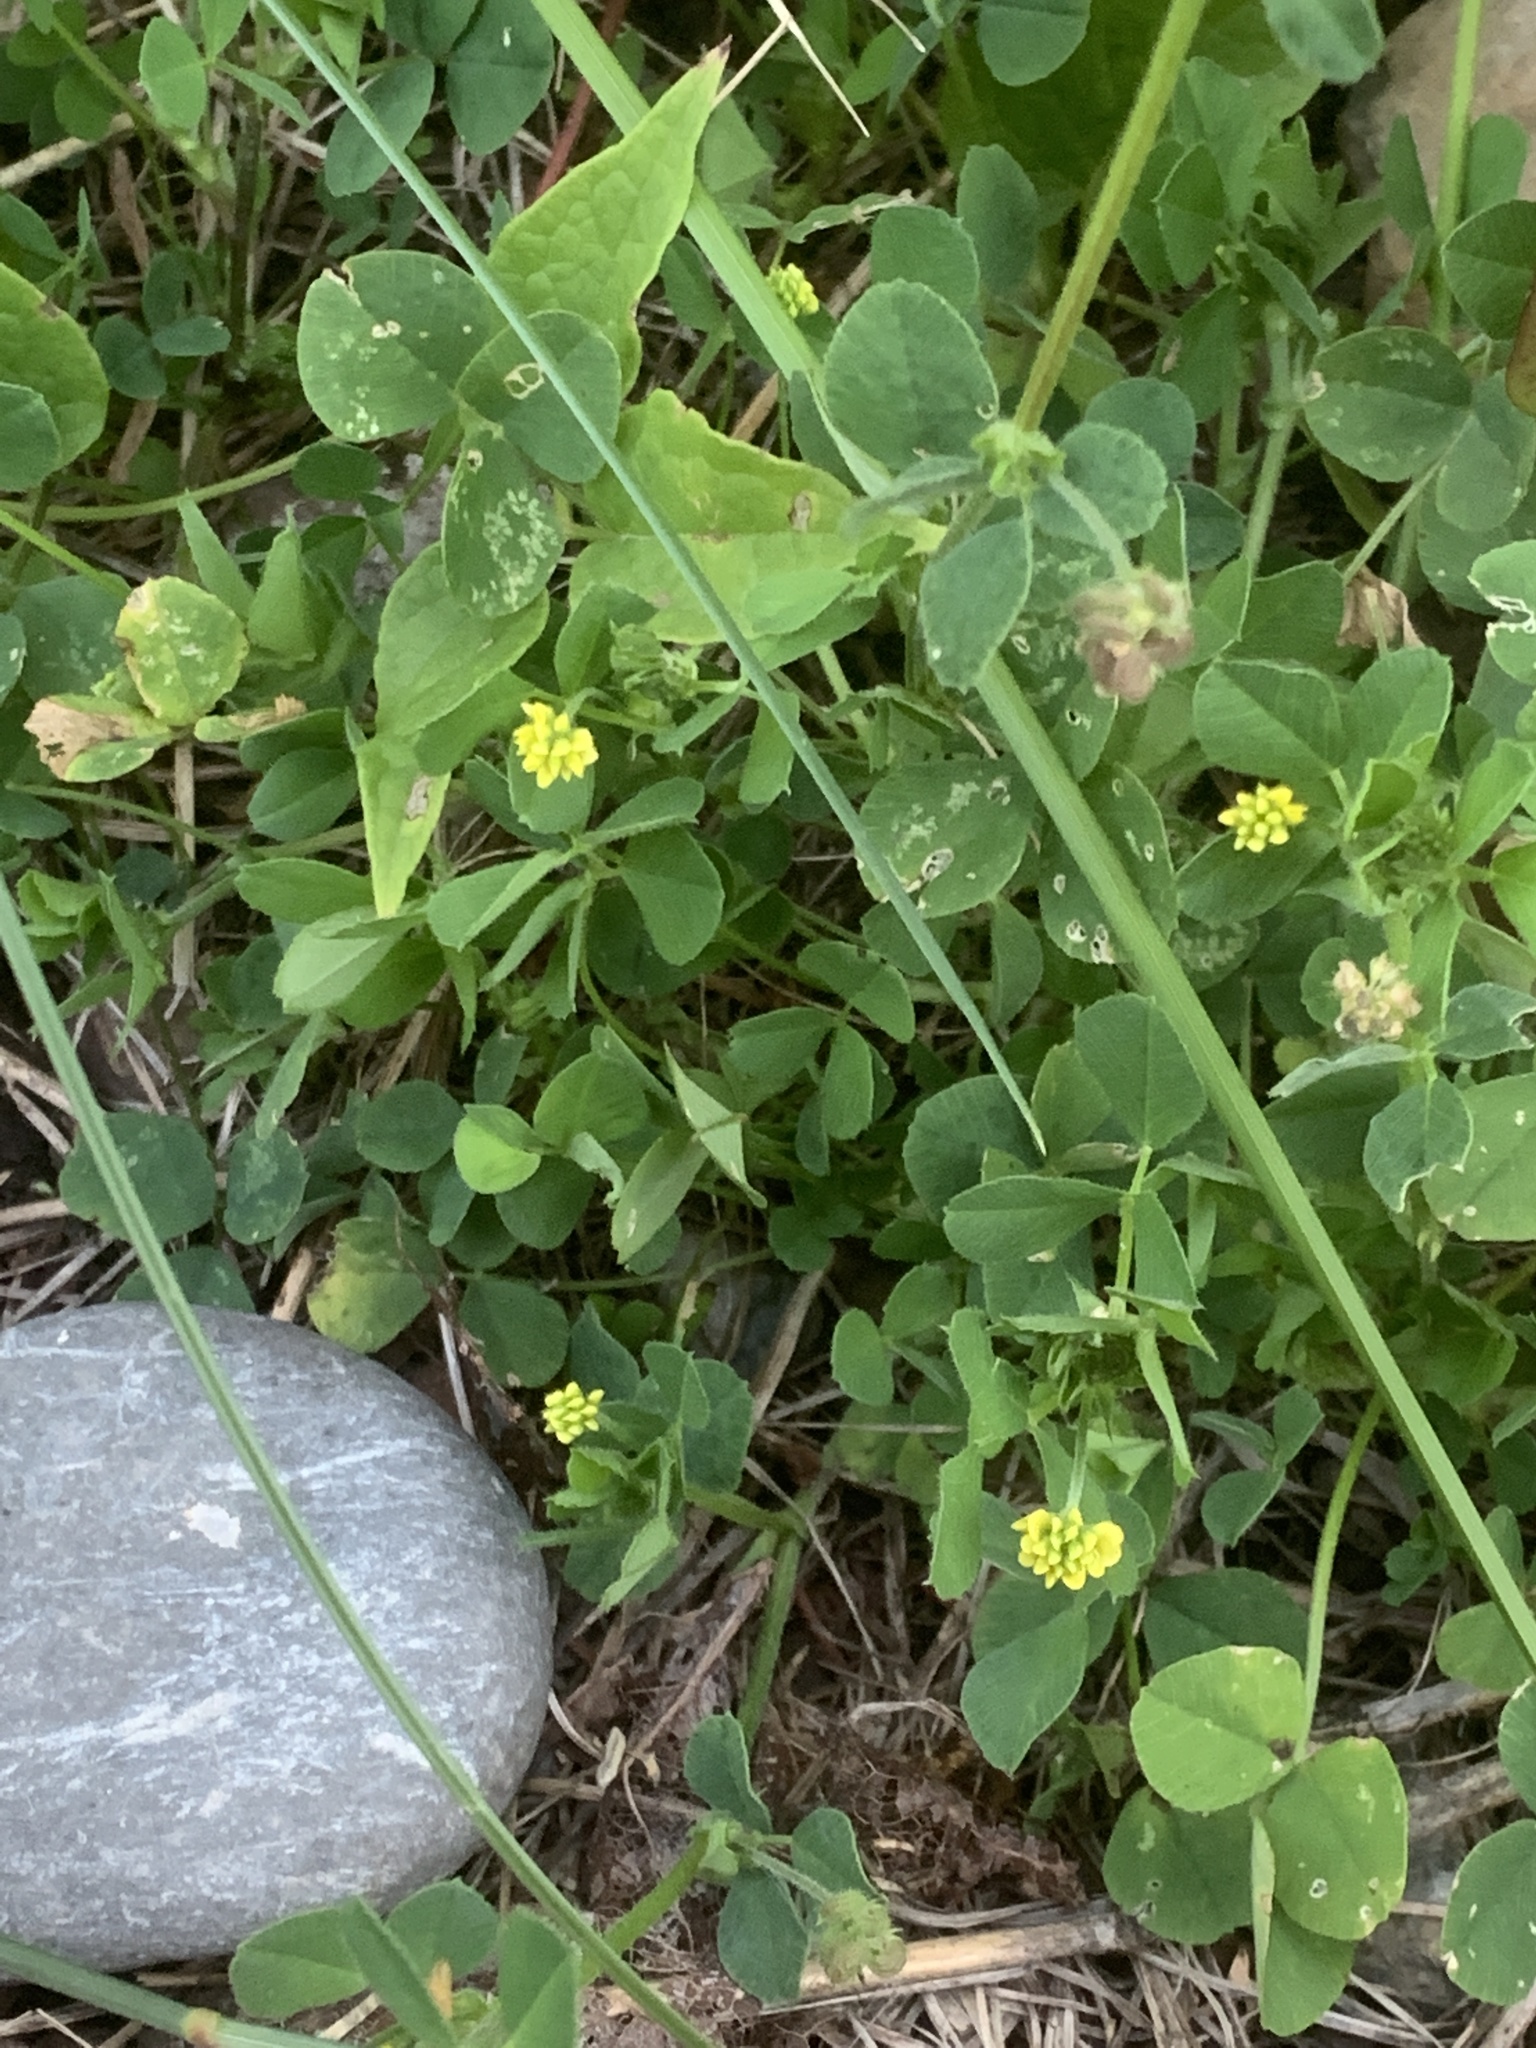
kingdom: Plantae
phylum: Tracheophyta
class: Magnoliopsida
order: Fabales
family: Fabaceae
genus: Medicago
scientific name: Medicago lupulina
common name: Black medick
